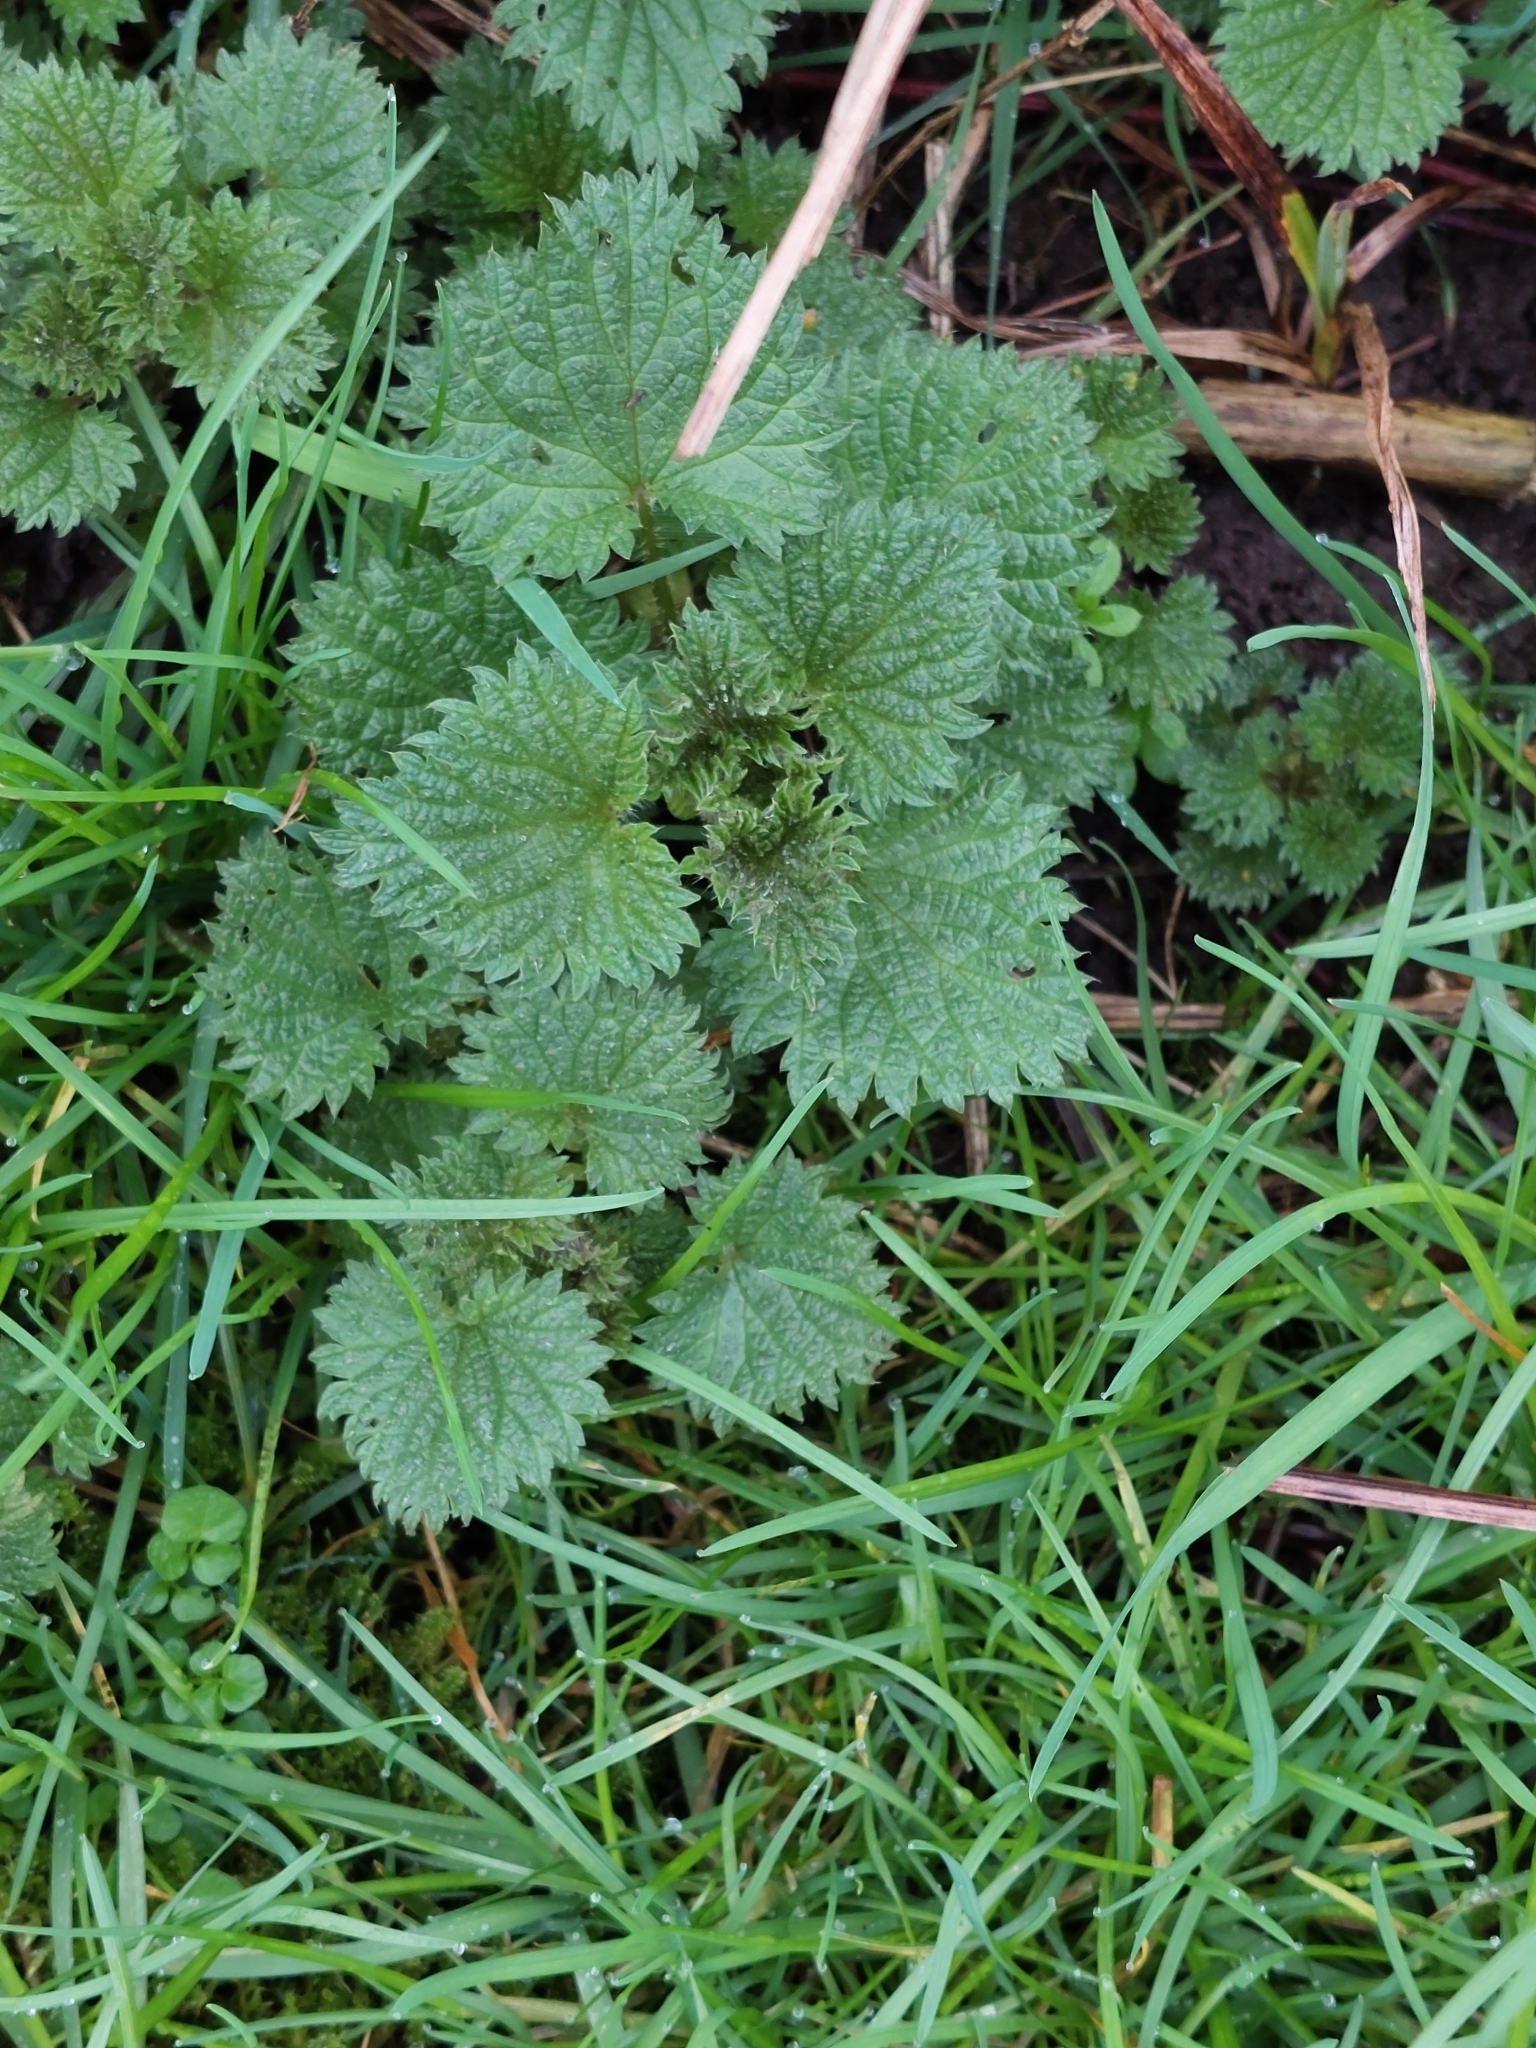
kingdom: Plantae
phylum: Tracheophyta
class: Magnoliopsida
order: Rosales
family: Urticaceae
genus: Urtica
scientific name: Urtica dioica
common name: Common nettle
